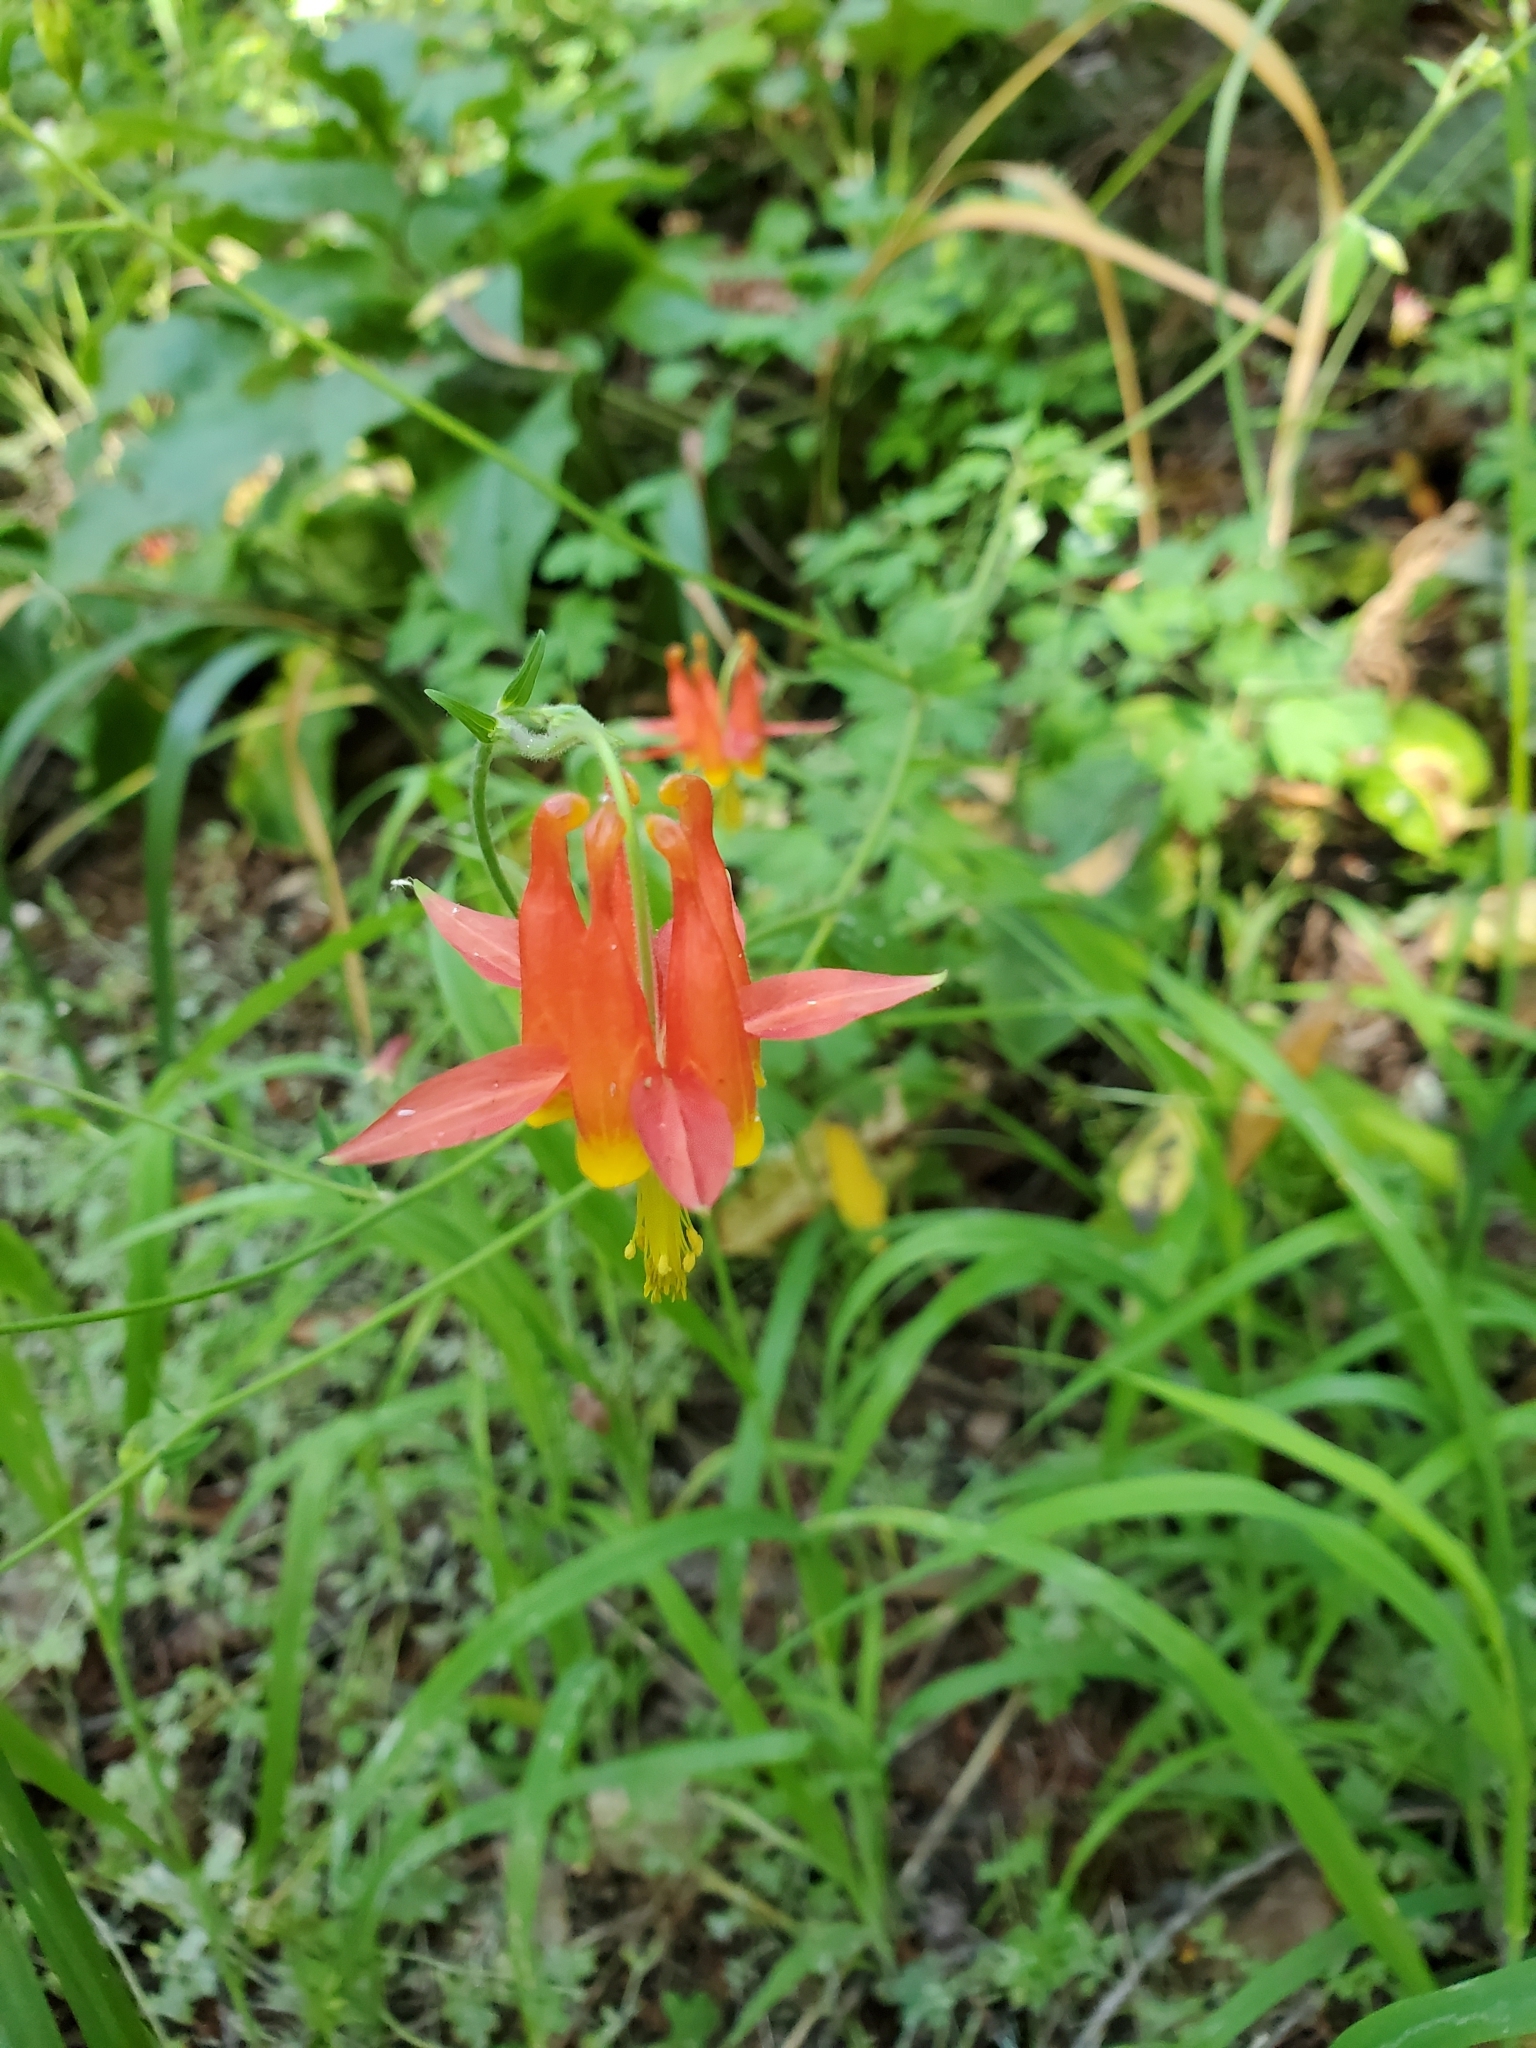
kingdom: Plantae
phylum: Tracheophyta
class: Magnoliopsida
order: Ranunculales
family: Ranunculaceae
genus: Aquilegia
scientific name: Aquilegia formosa
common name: Sitka columbine
